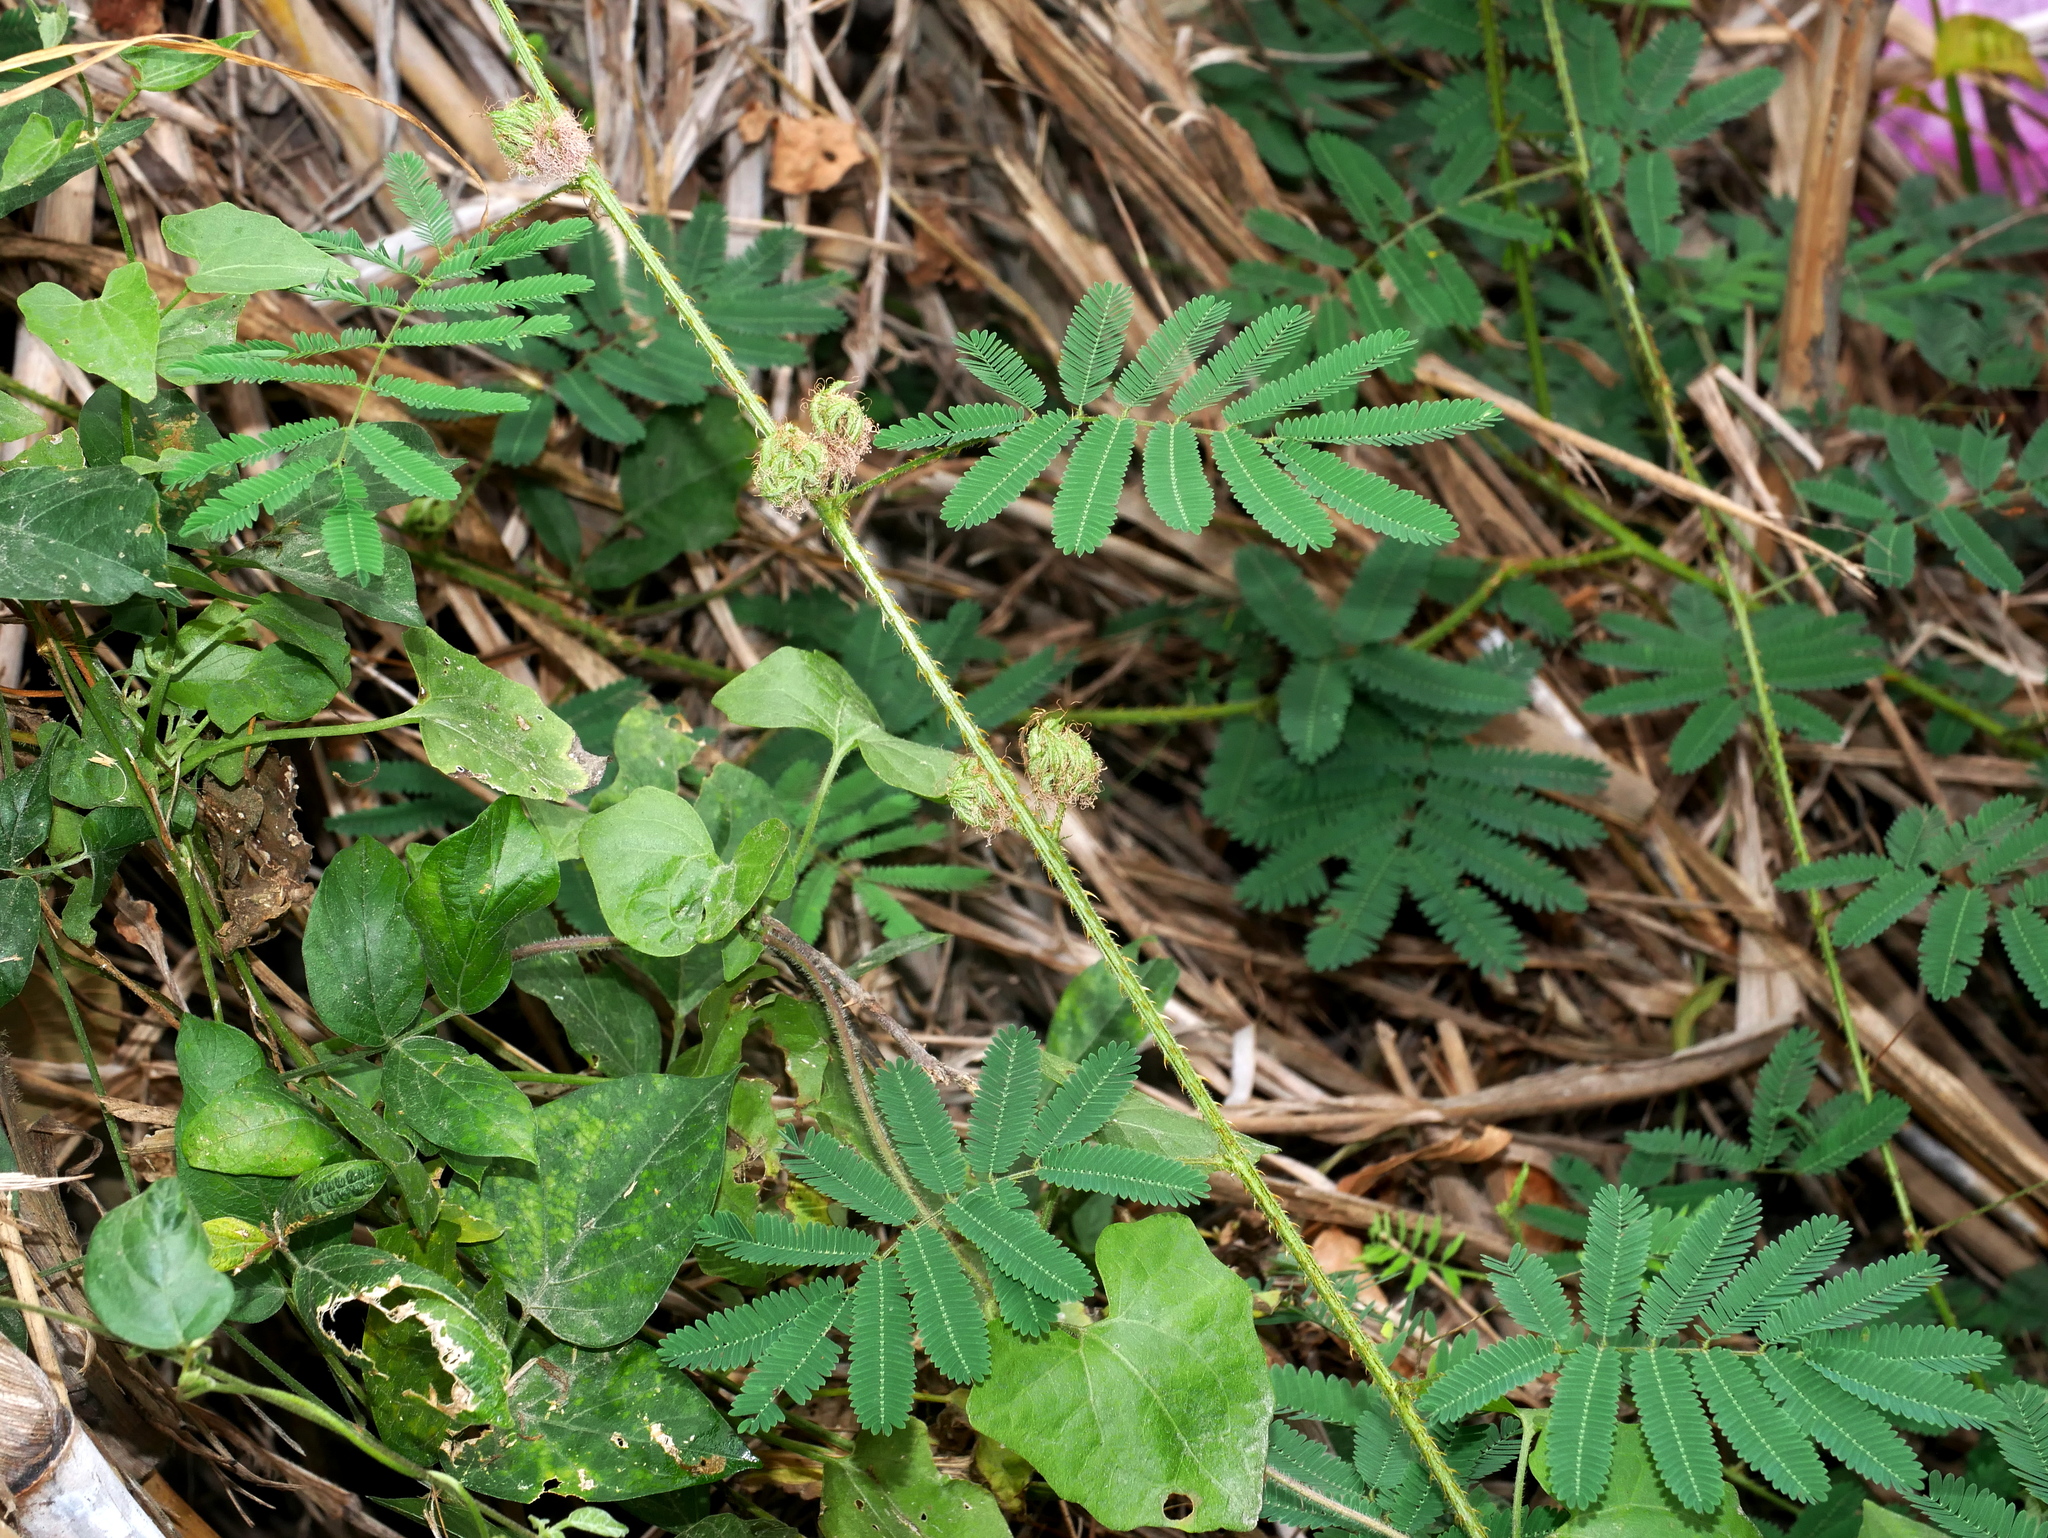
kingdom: Plantae
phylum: Tracheophyta
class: Magnoliopsida
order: Fabales
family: Fabaceae
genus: Mimosa
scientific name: Mimosa diplotricha
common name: Giant sensitive-plant
